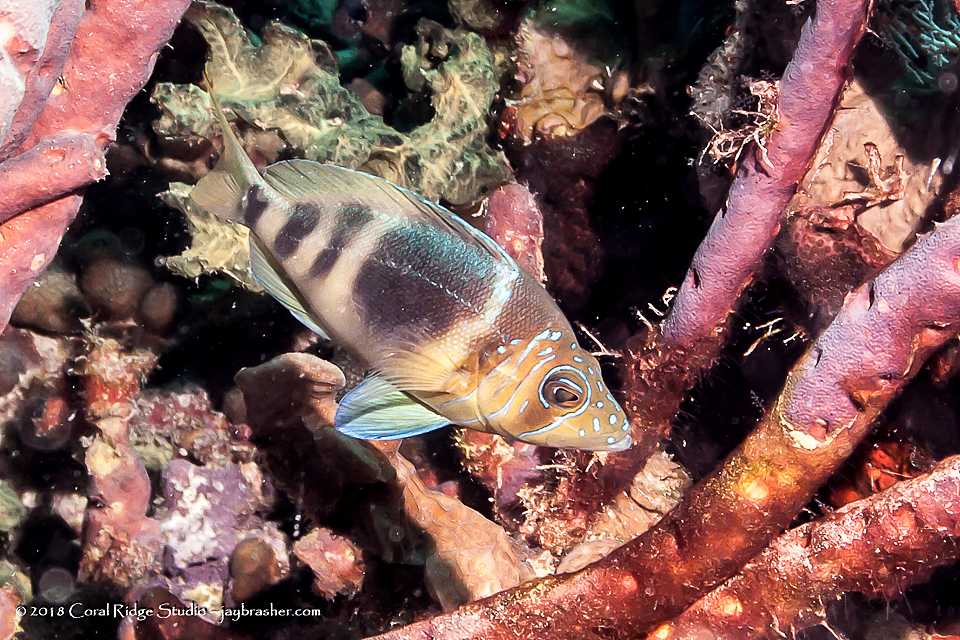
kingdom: Animalia
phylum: Chordata
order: Perciformes
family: Serranidae
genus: Hypoplectrus
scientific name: Hypoplectrus puella
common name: Barred hamlet
